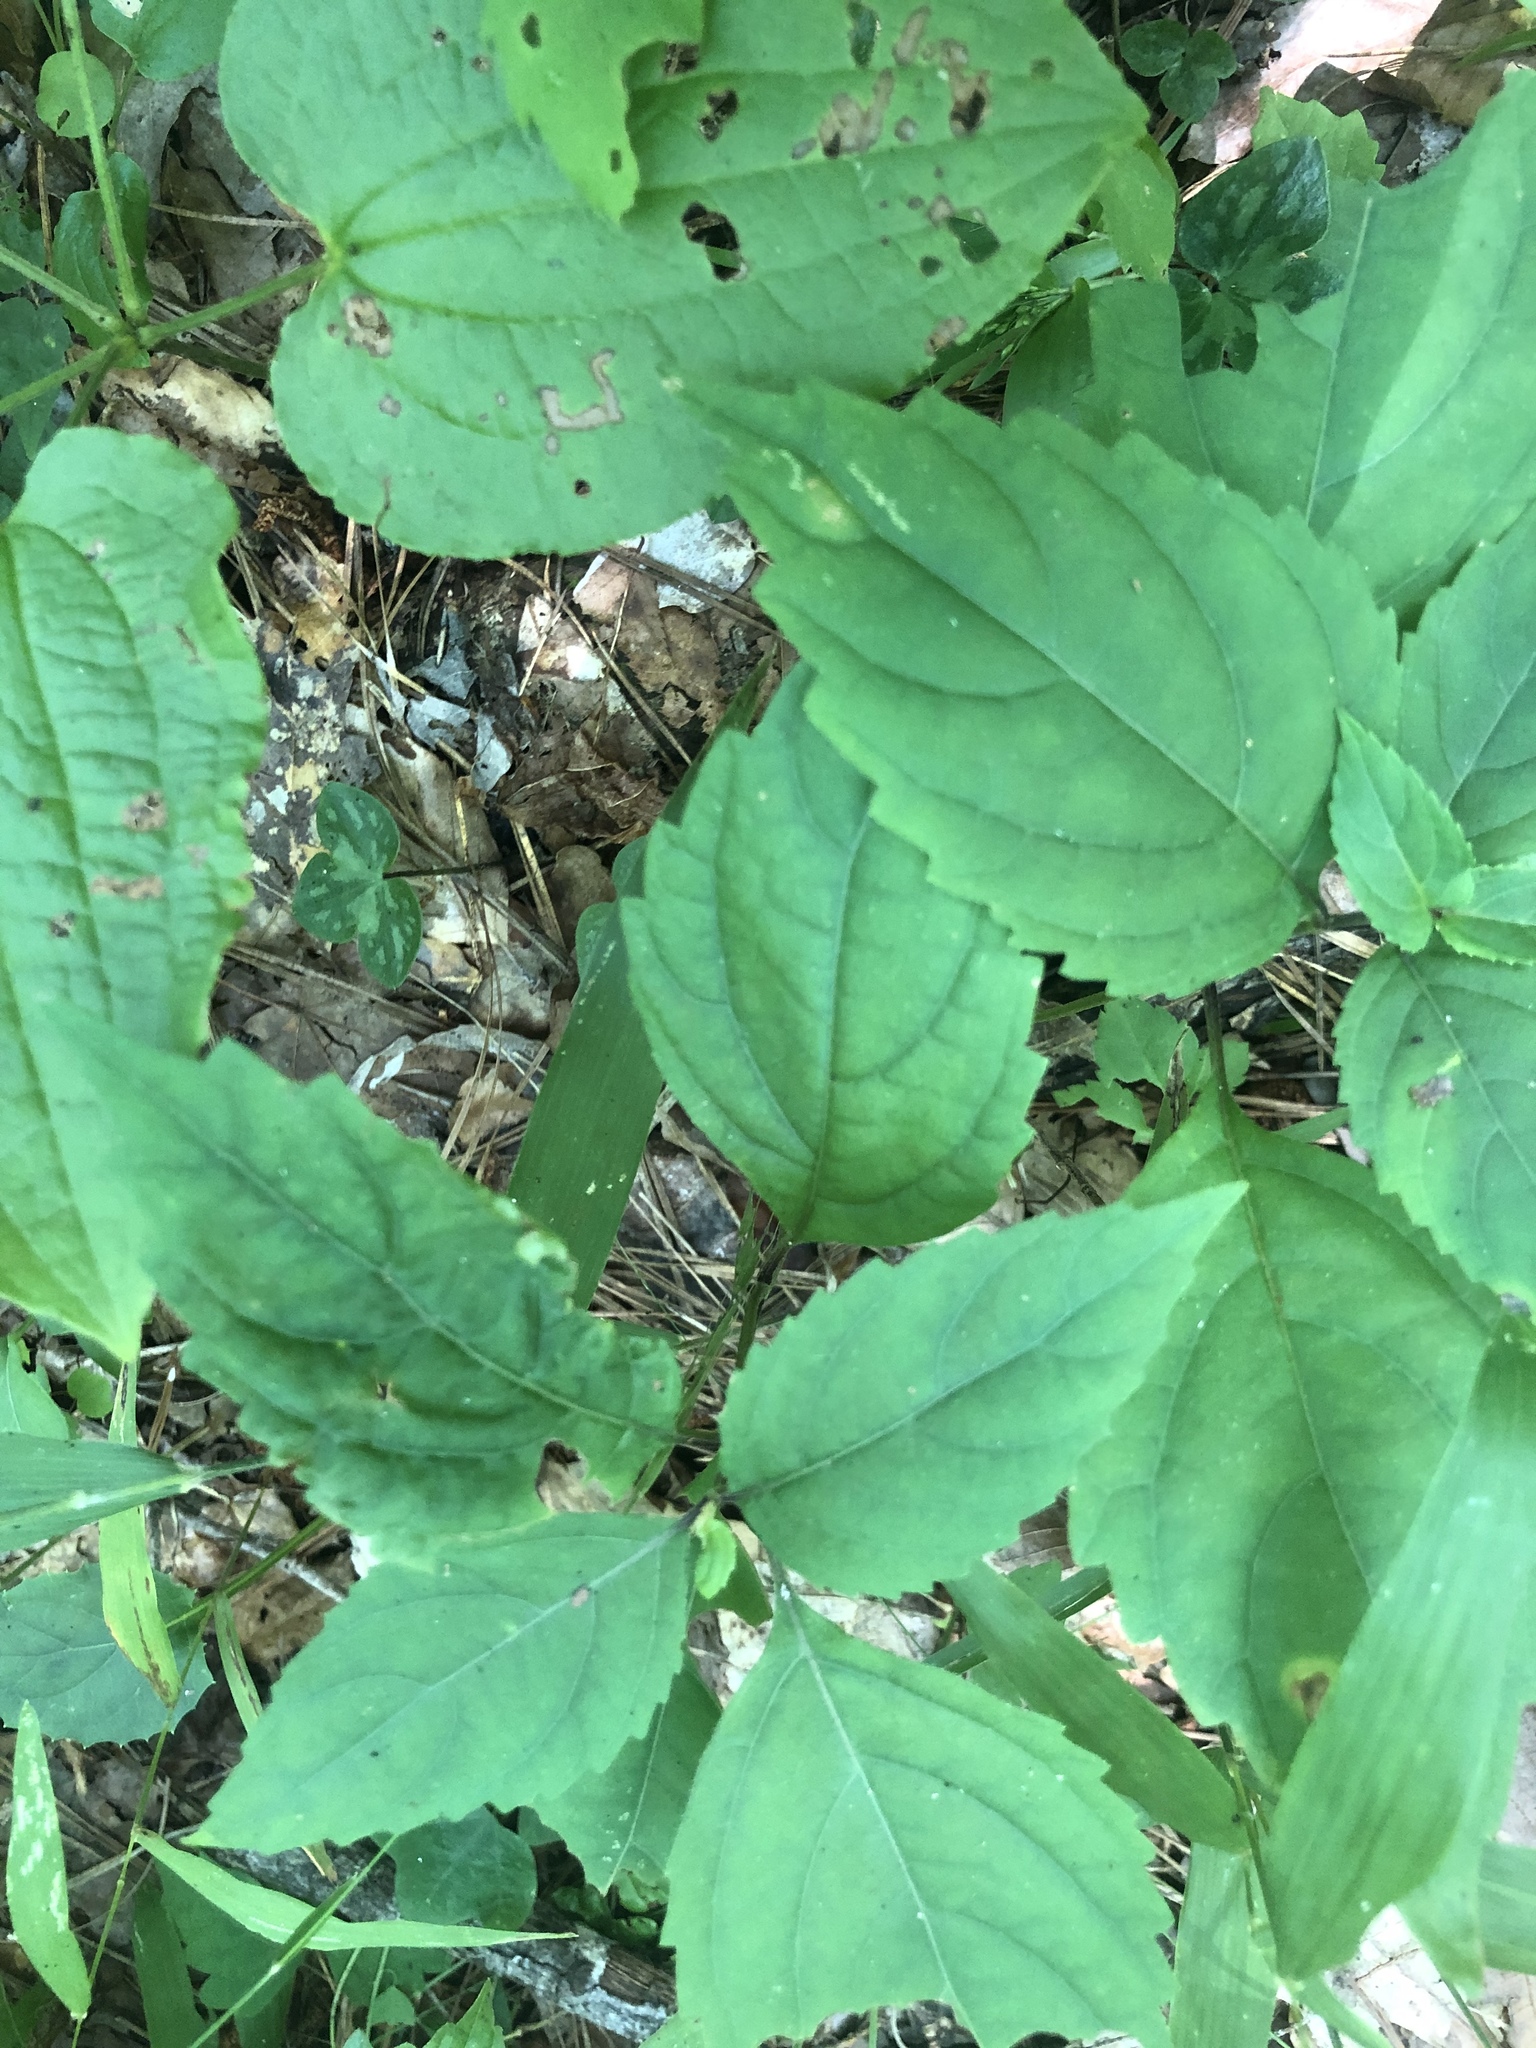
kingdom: Plantae
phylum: Tracheophyta
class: Magnoliopsida
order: Lamiales
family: Lamiaceae
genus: Collinsonia
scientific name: Collinsonia canadensis
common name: Northern horsebalm
